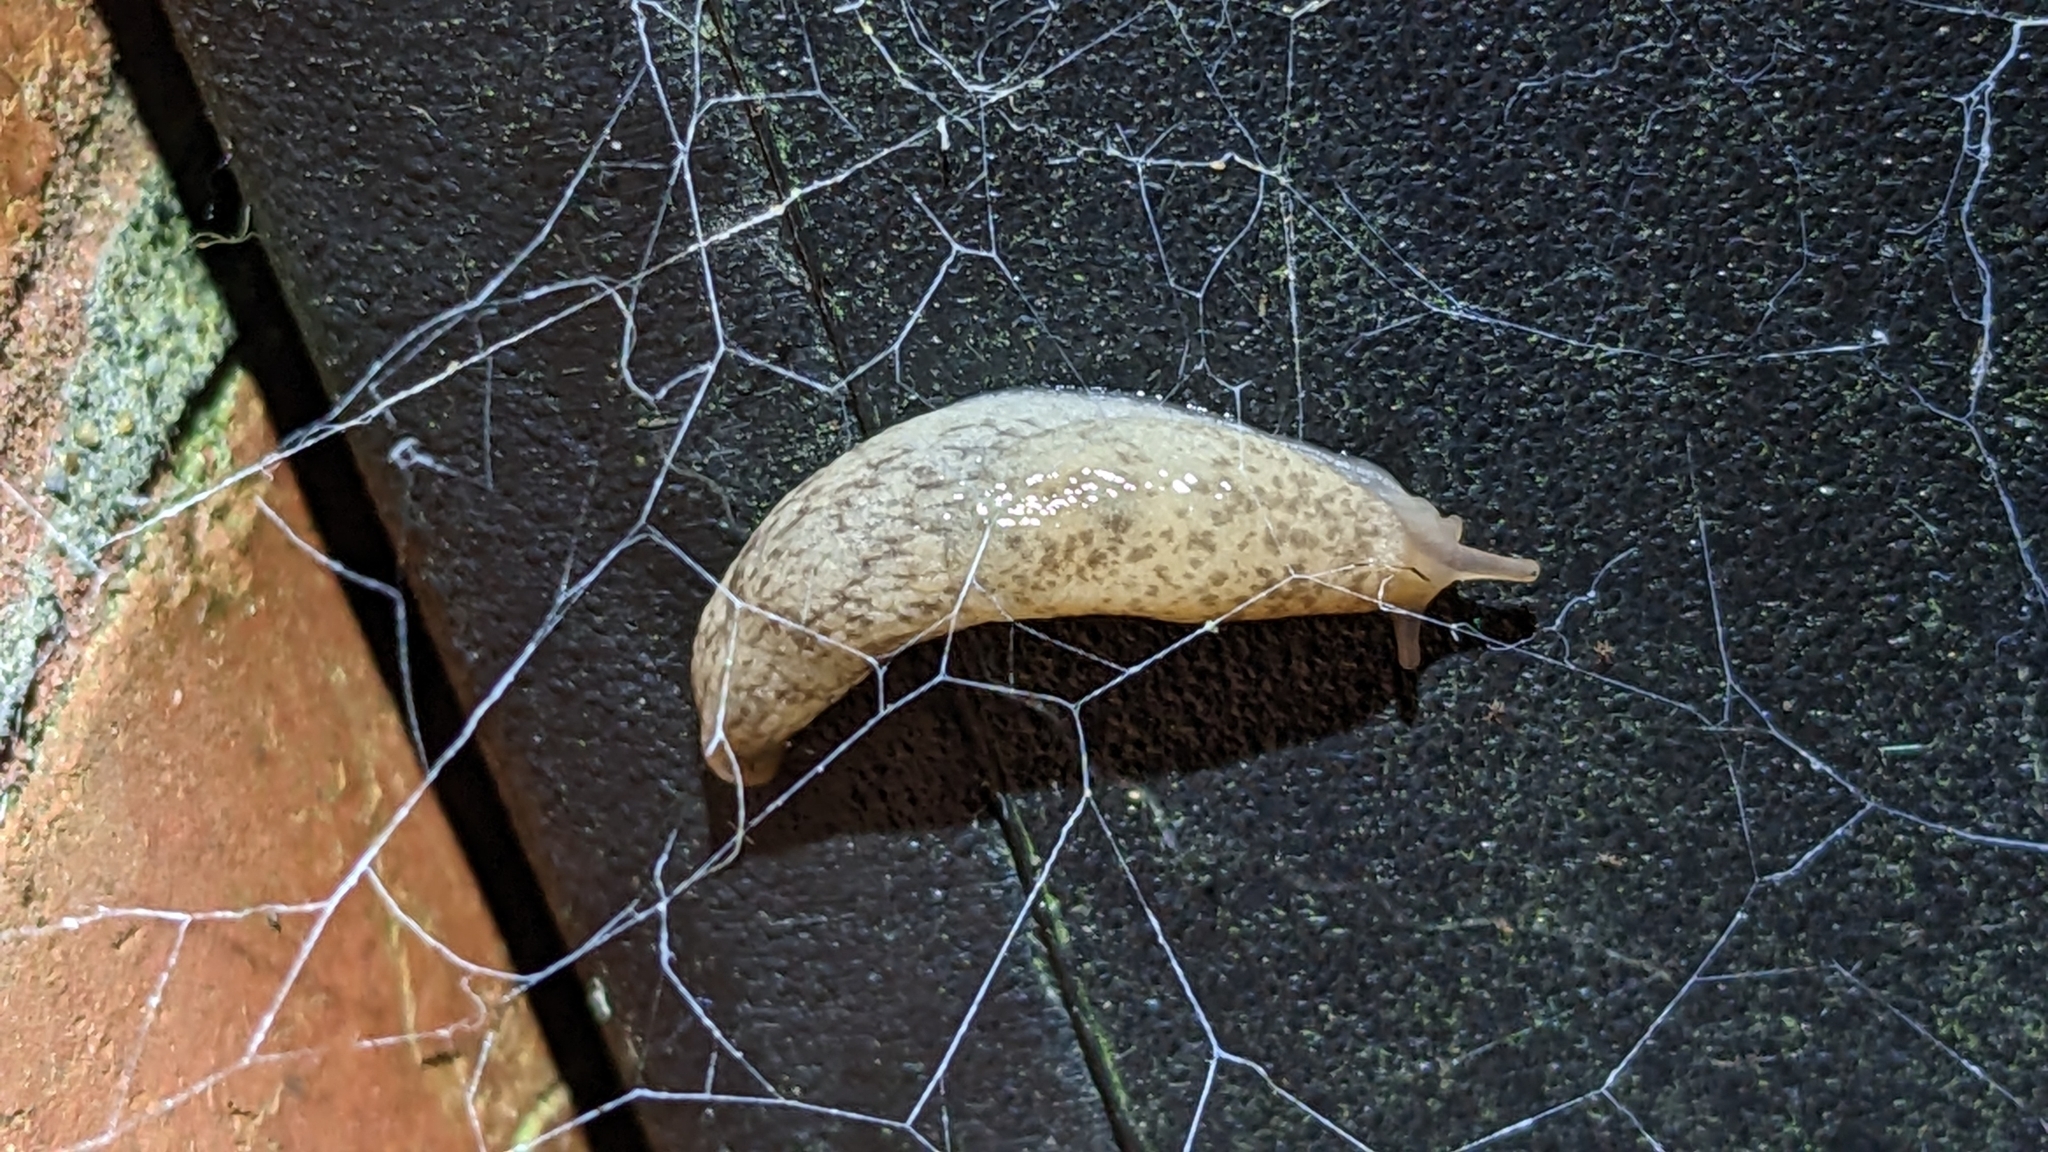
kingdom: Animalia
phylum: Mollusca
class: Gastropoda
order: Stylommatophora
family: Agriolimacidae
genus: Deroceras
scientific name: Deroceras reticulatum
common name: Gray field slug
